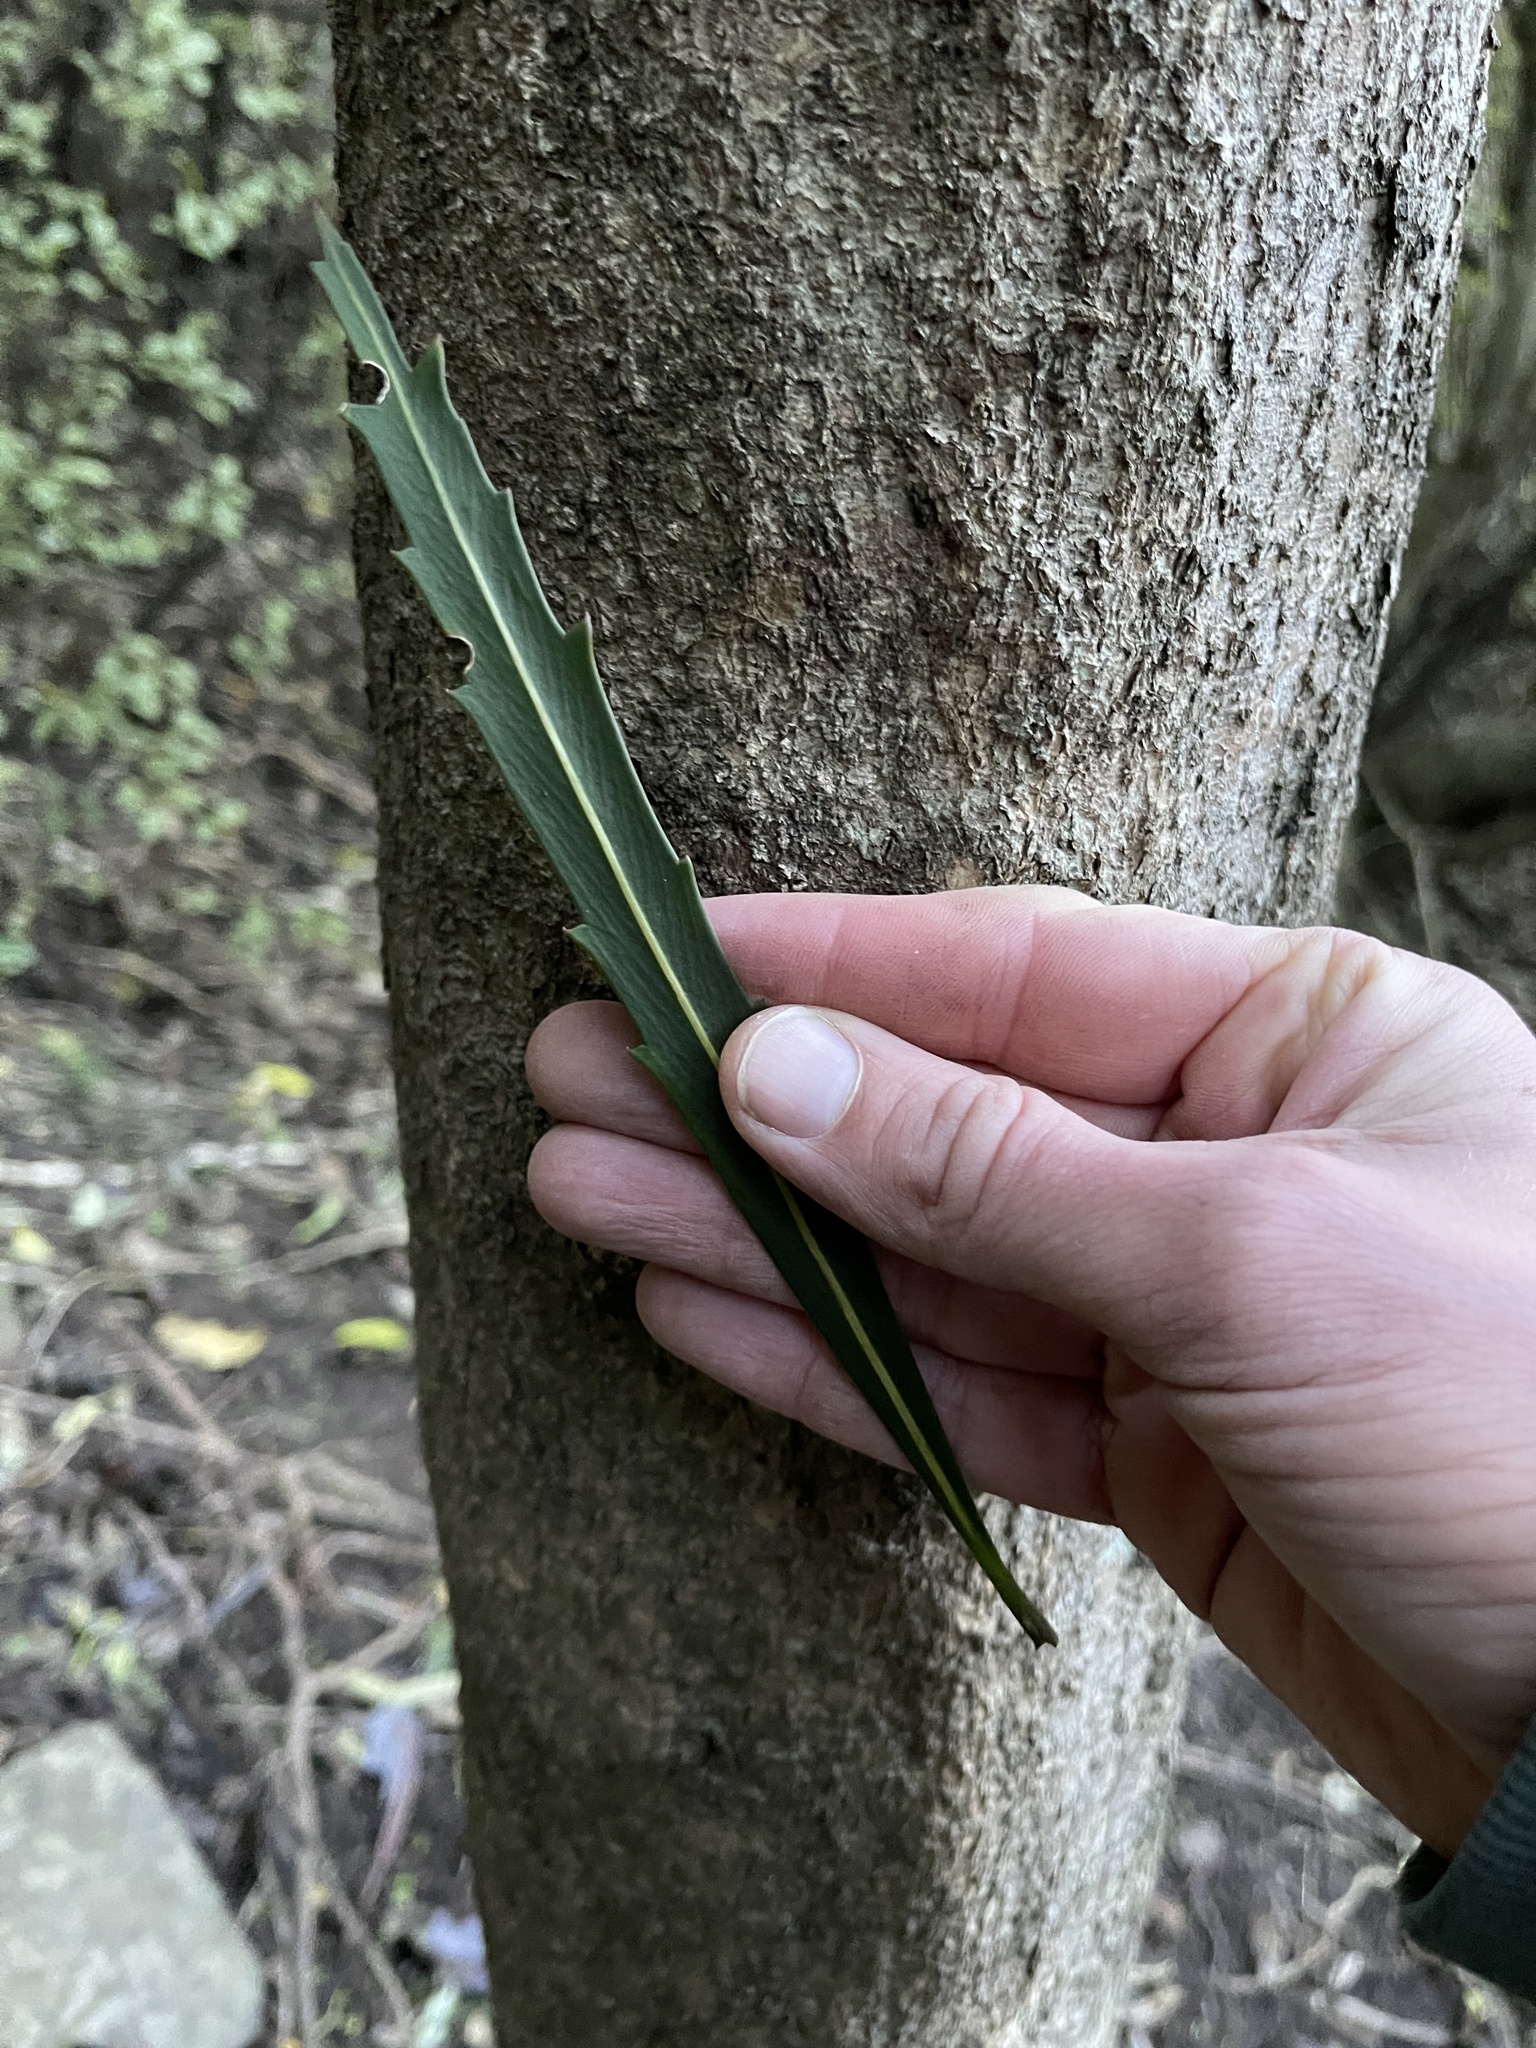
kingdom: Plantae
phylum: Tracheophyta
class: Magnoliopsida
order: Apiales
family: Araliaceae
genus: Pseudopanax
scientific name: Pseudopanax crassifolius
